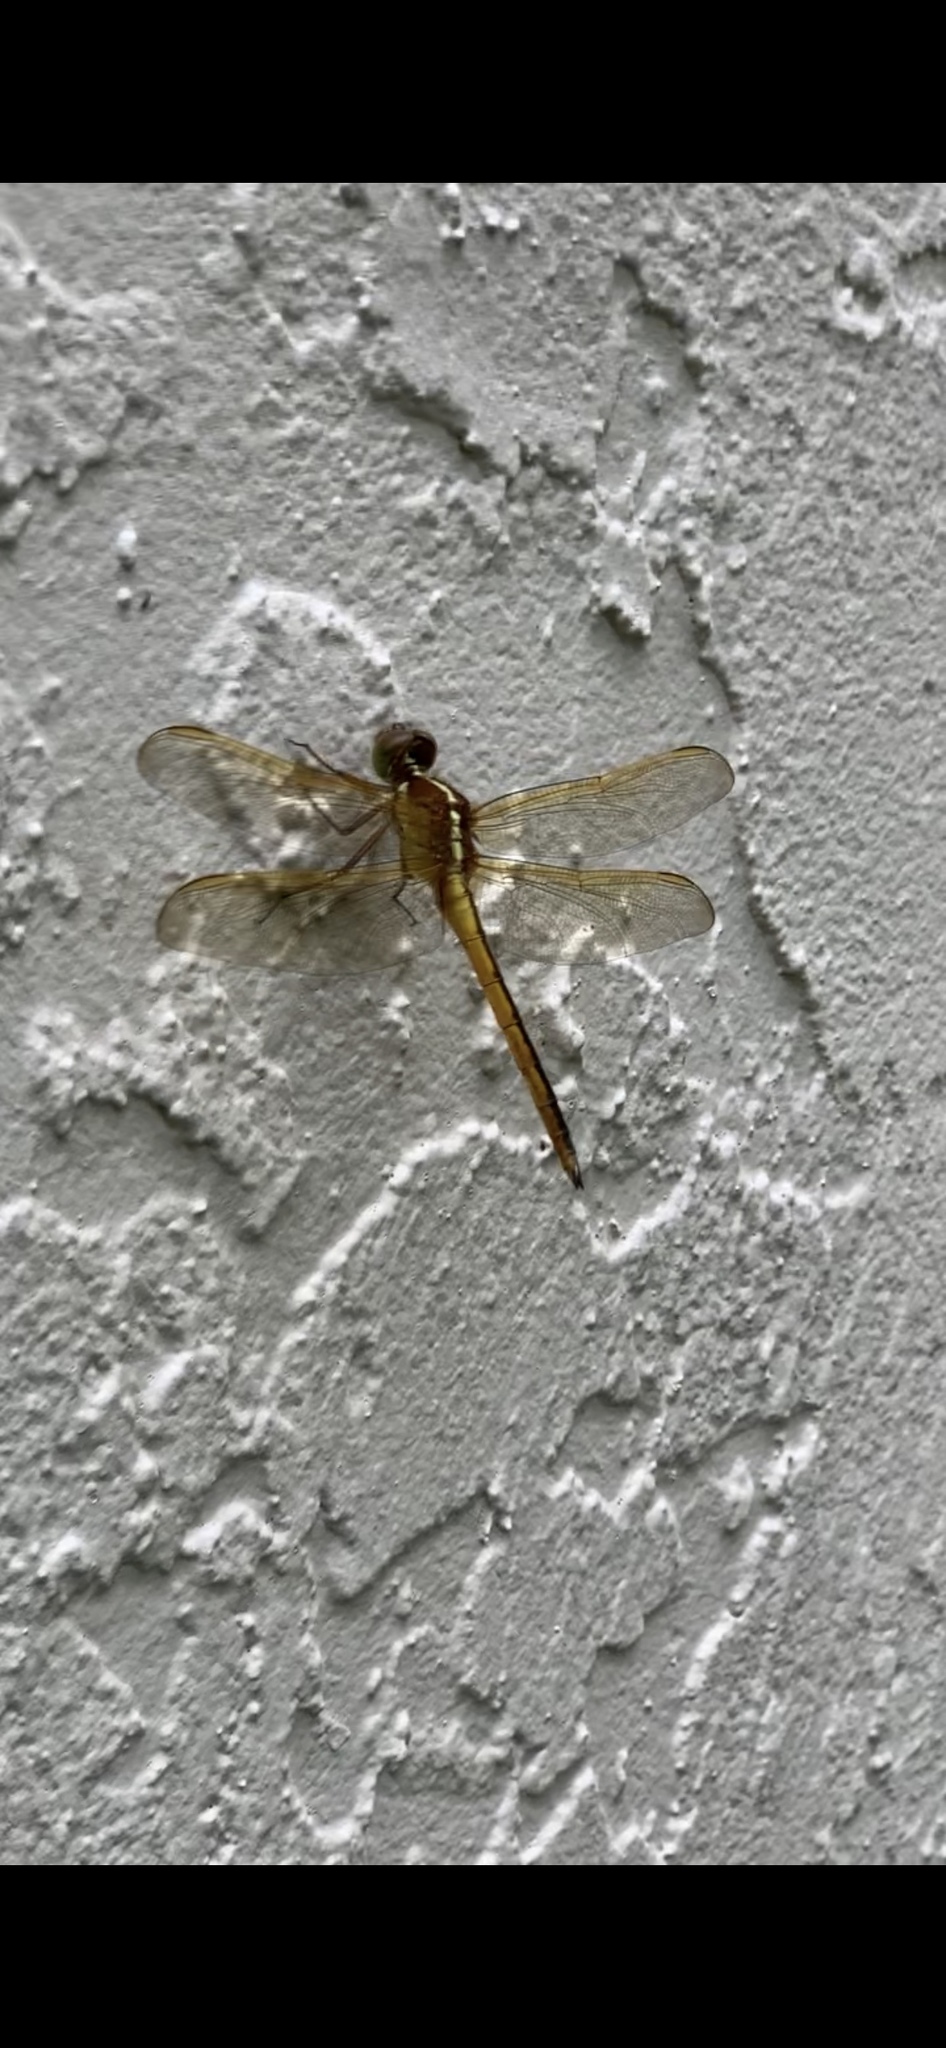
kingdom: Animalia
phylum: Arthropoda
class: Insecta
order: Odonata
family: Libellulidae
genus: Libellula
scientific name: Libellula needhami
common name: Needham's skimmer
